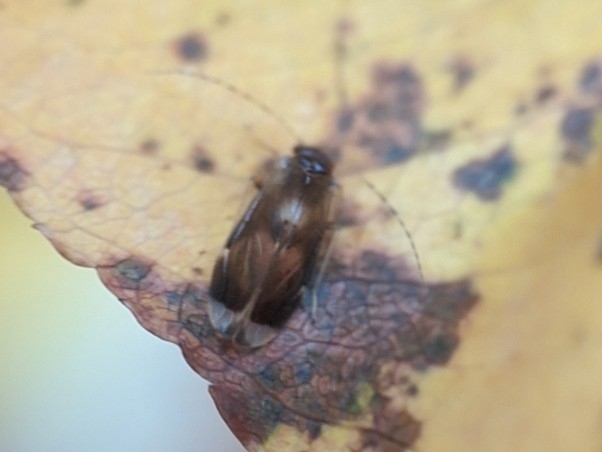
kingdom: Animalia
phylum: Arthropoda
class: Insecta
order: Psocodea
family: Amphipsocidae
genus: Polypsocus
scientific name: Polypsocus corruptus
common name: Corrupt barklouse
